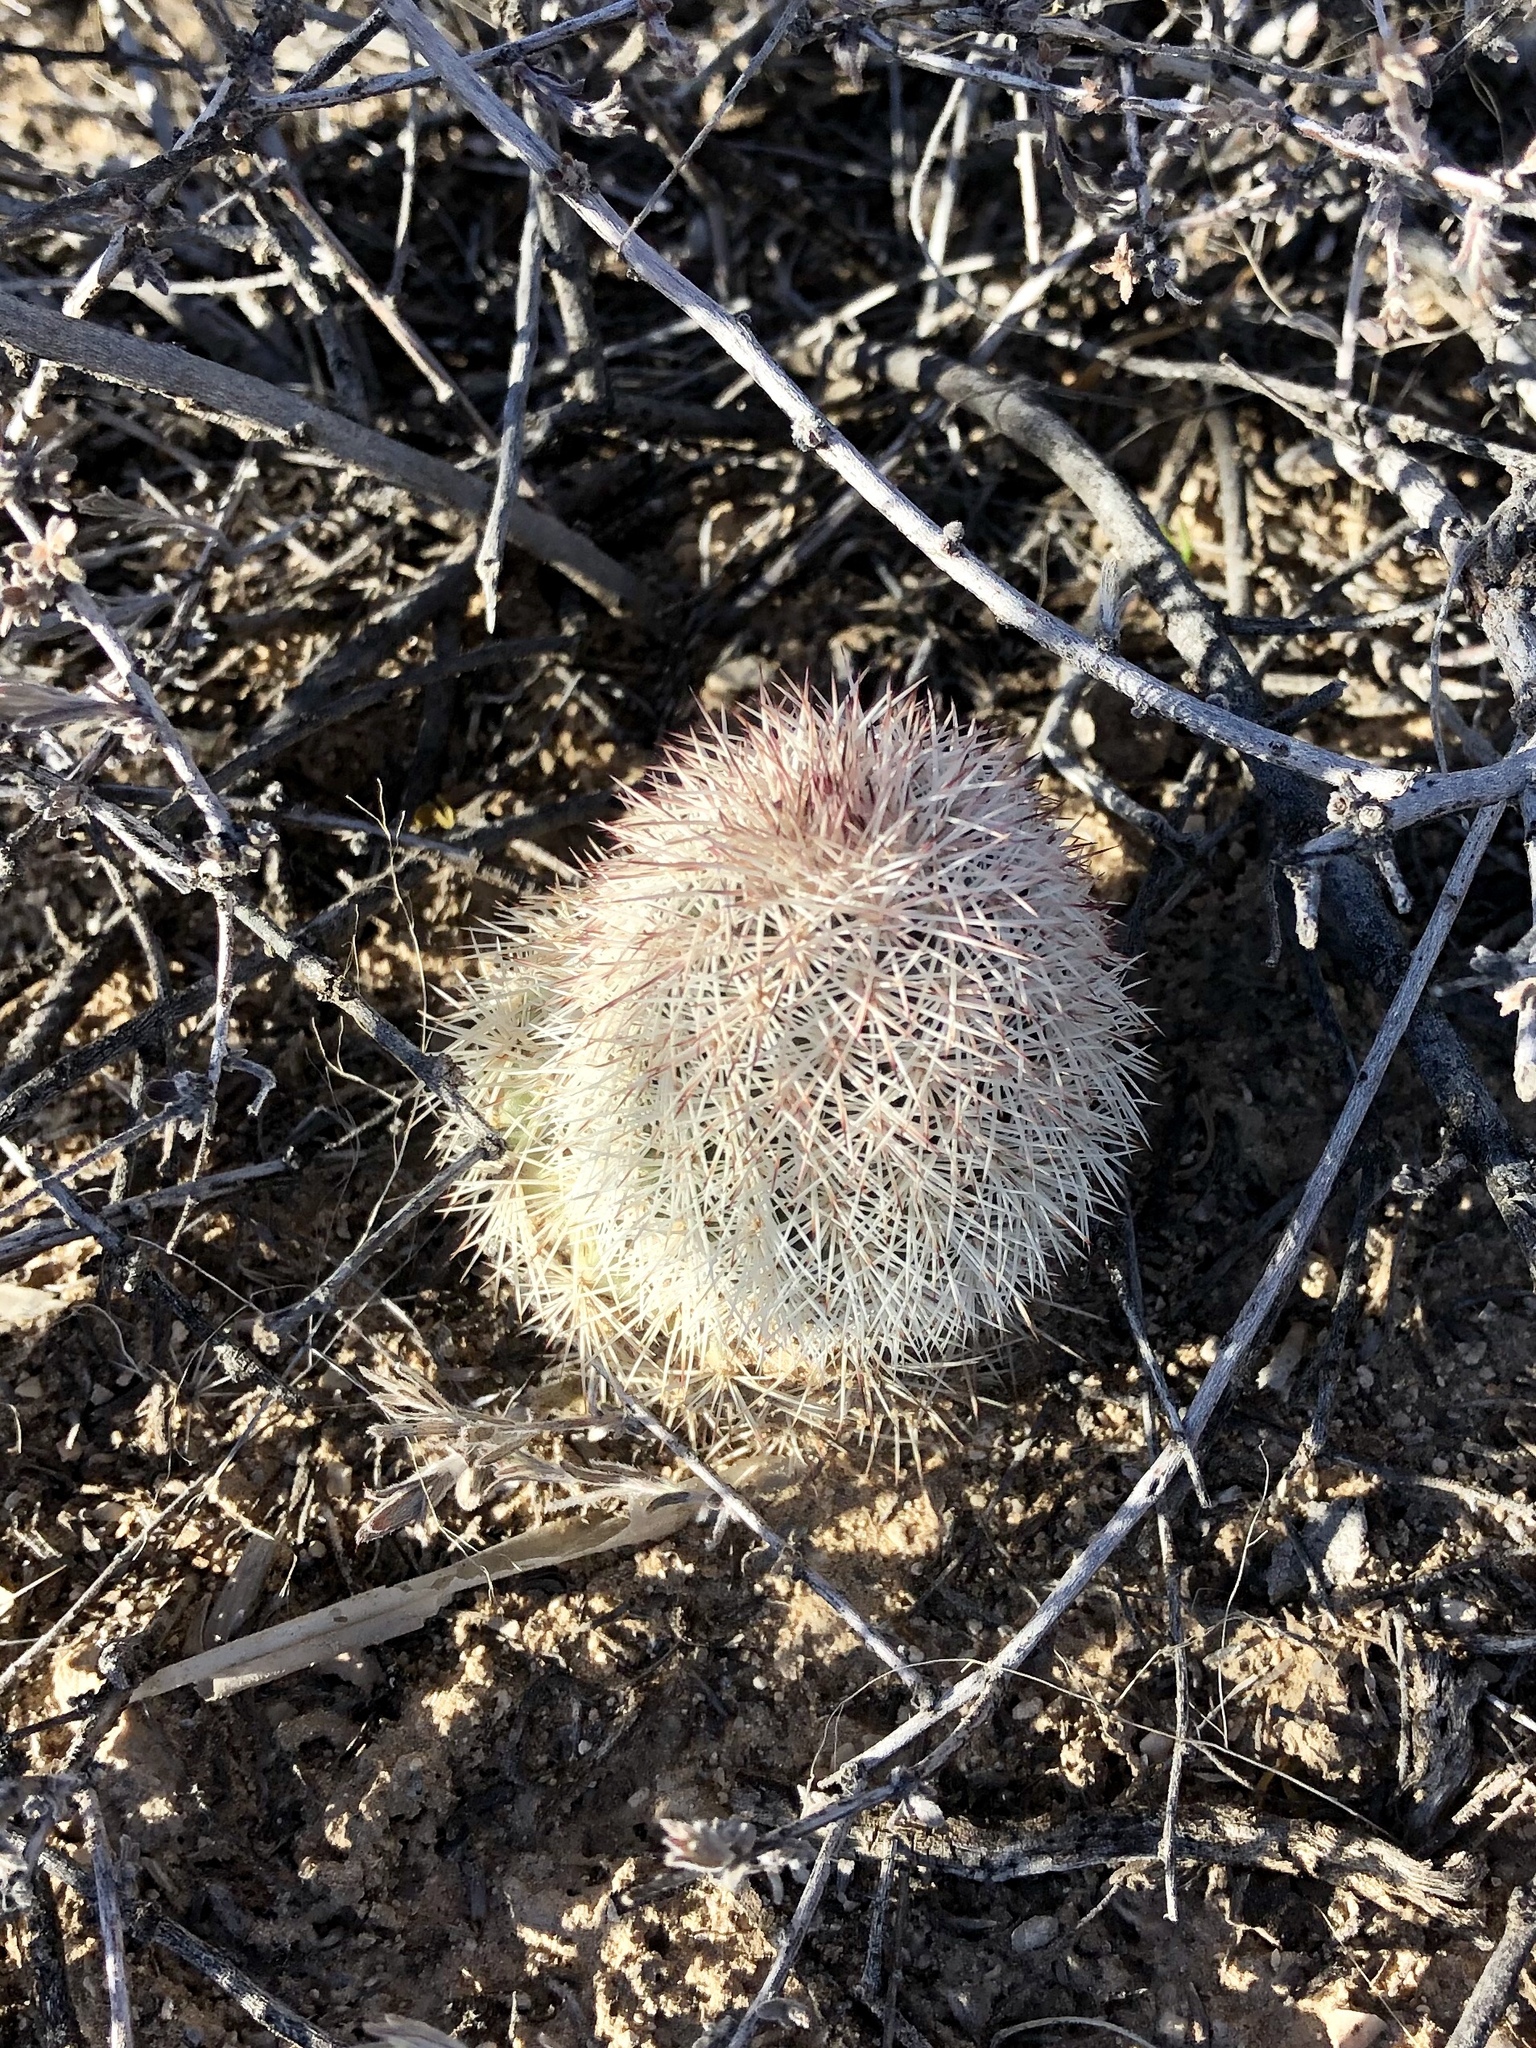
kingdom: Plantae
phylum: Tracheophyta
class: Magnoliopsida
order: Caryophyllales
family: Cactaceae
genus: Echinocereus
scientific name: Echinocereus dasyacanthus
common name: Spiny hedgehog cactus
